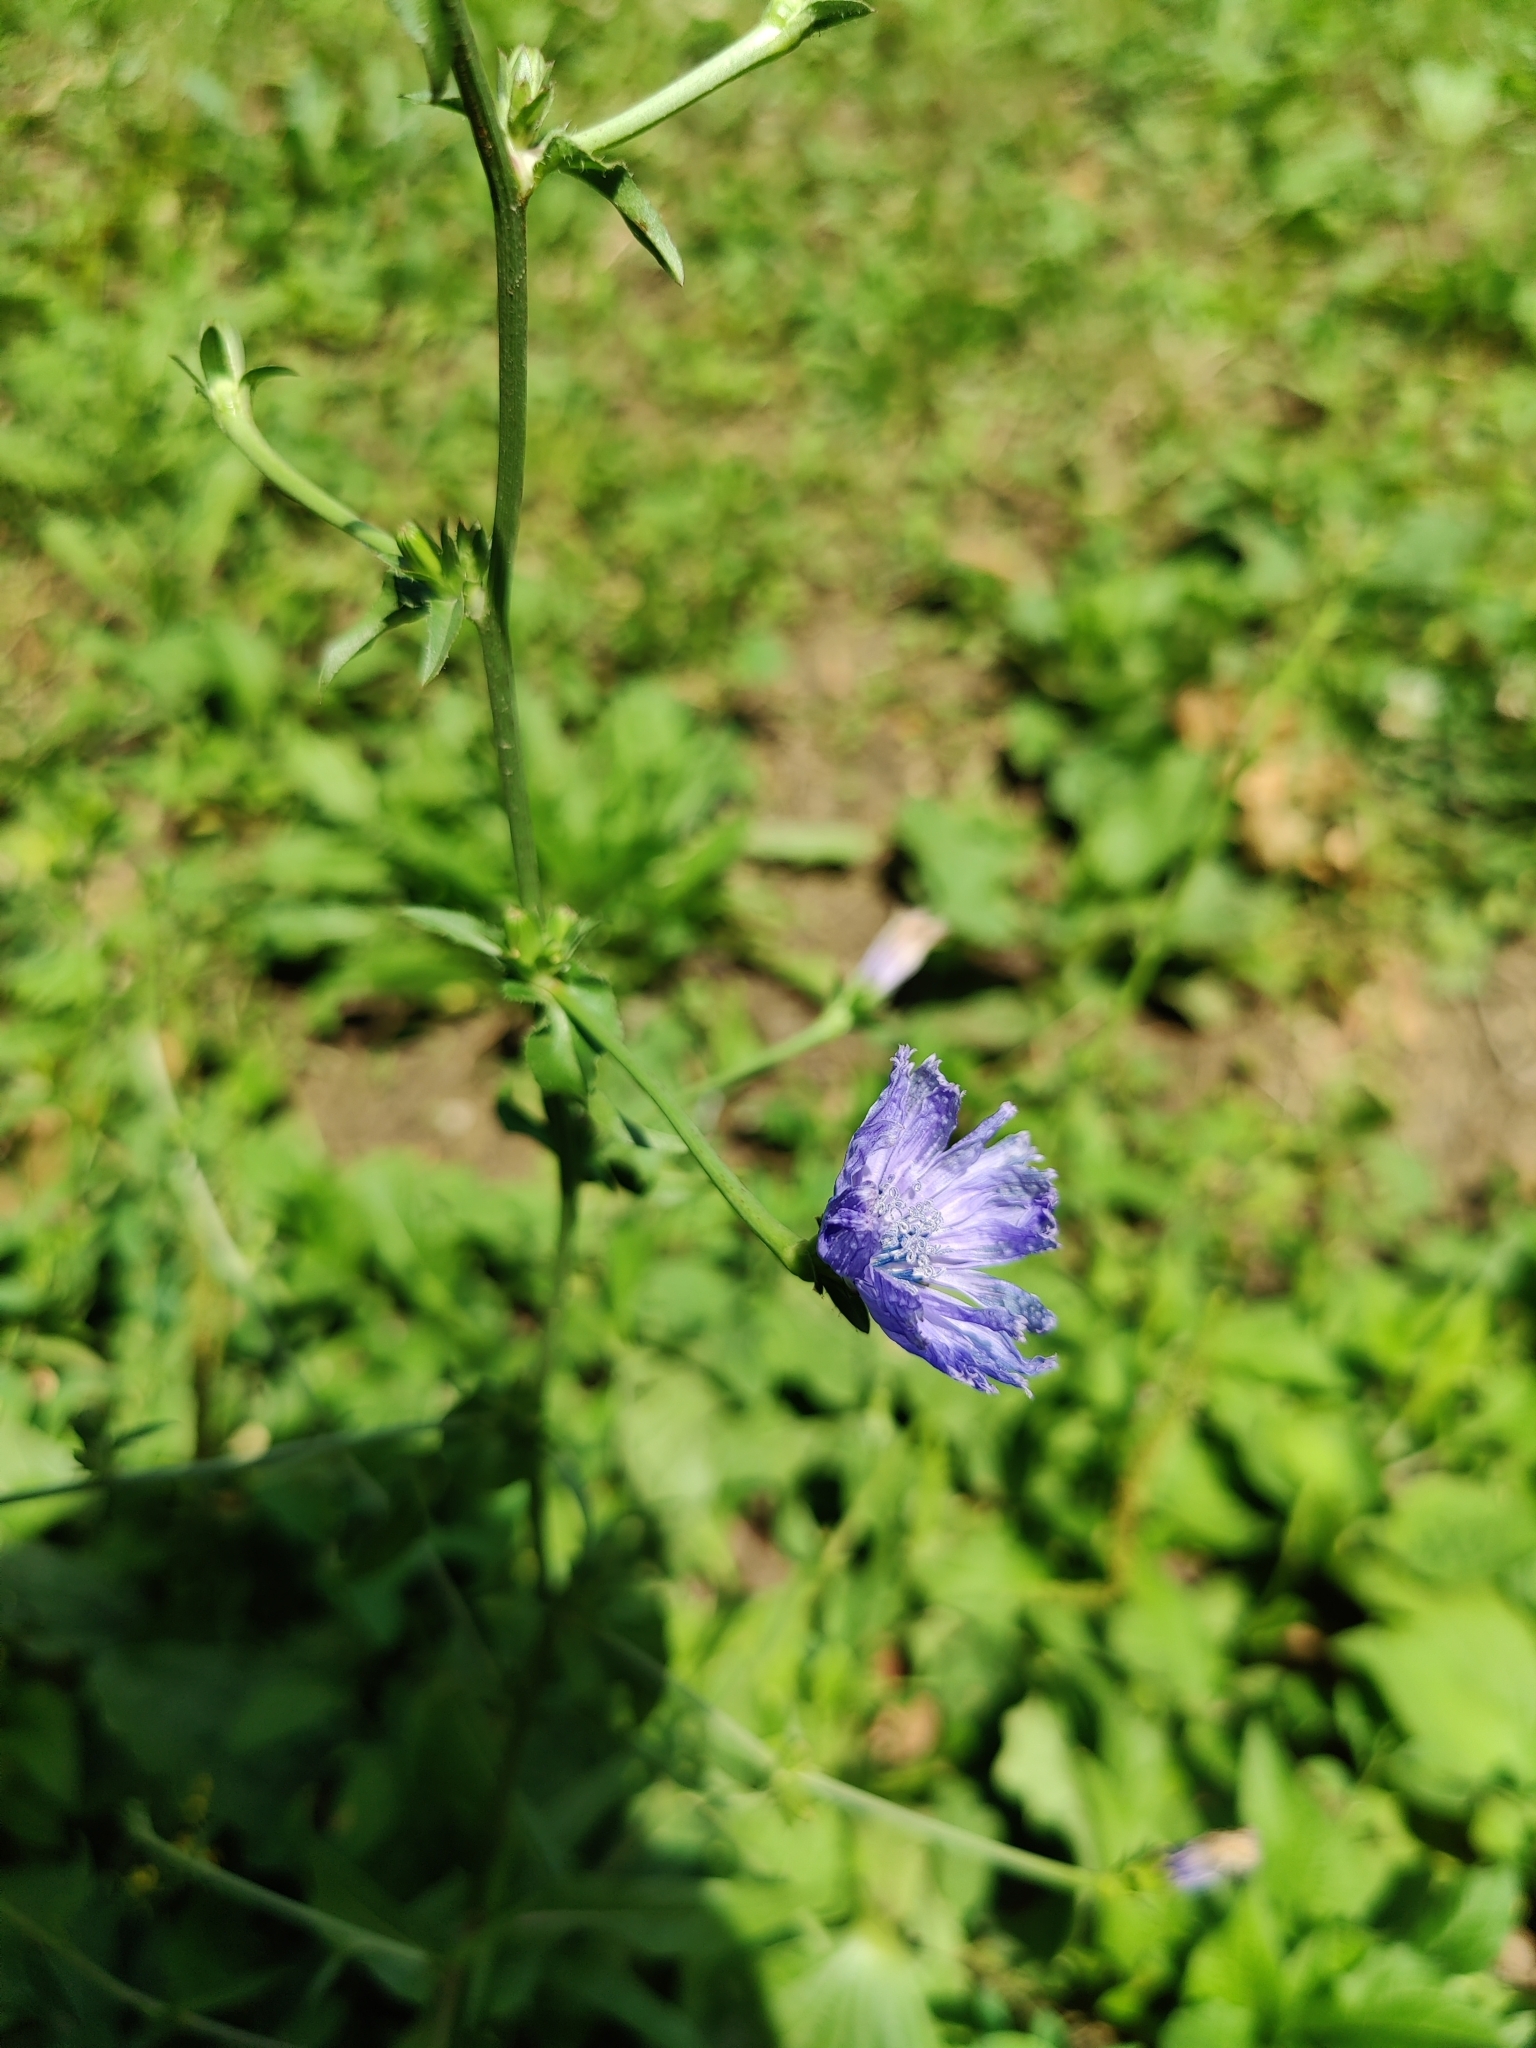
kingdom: Plantae
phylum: Tracheophyta
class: Magnoliopsida
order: Asterales
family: Asteraceae
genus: Cichorium
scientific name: Cichorium intybus
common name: Chicory
